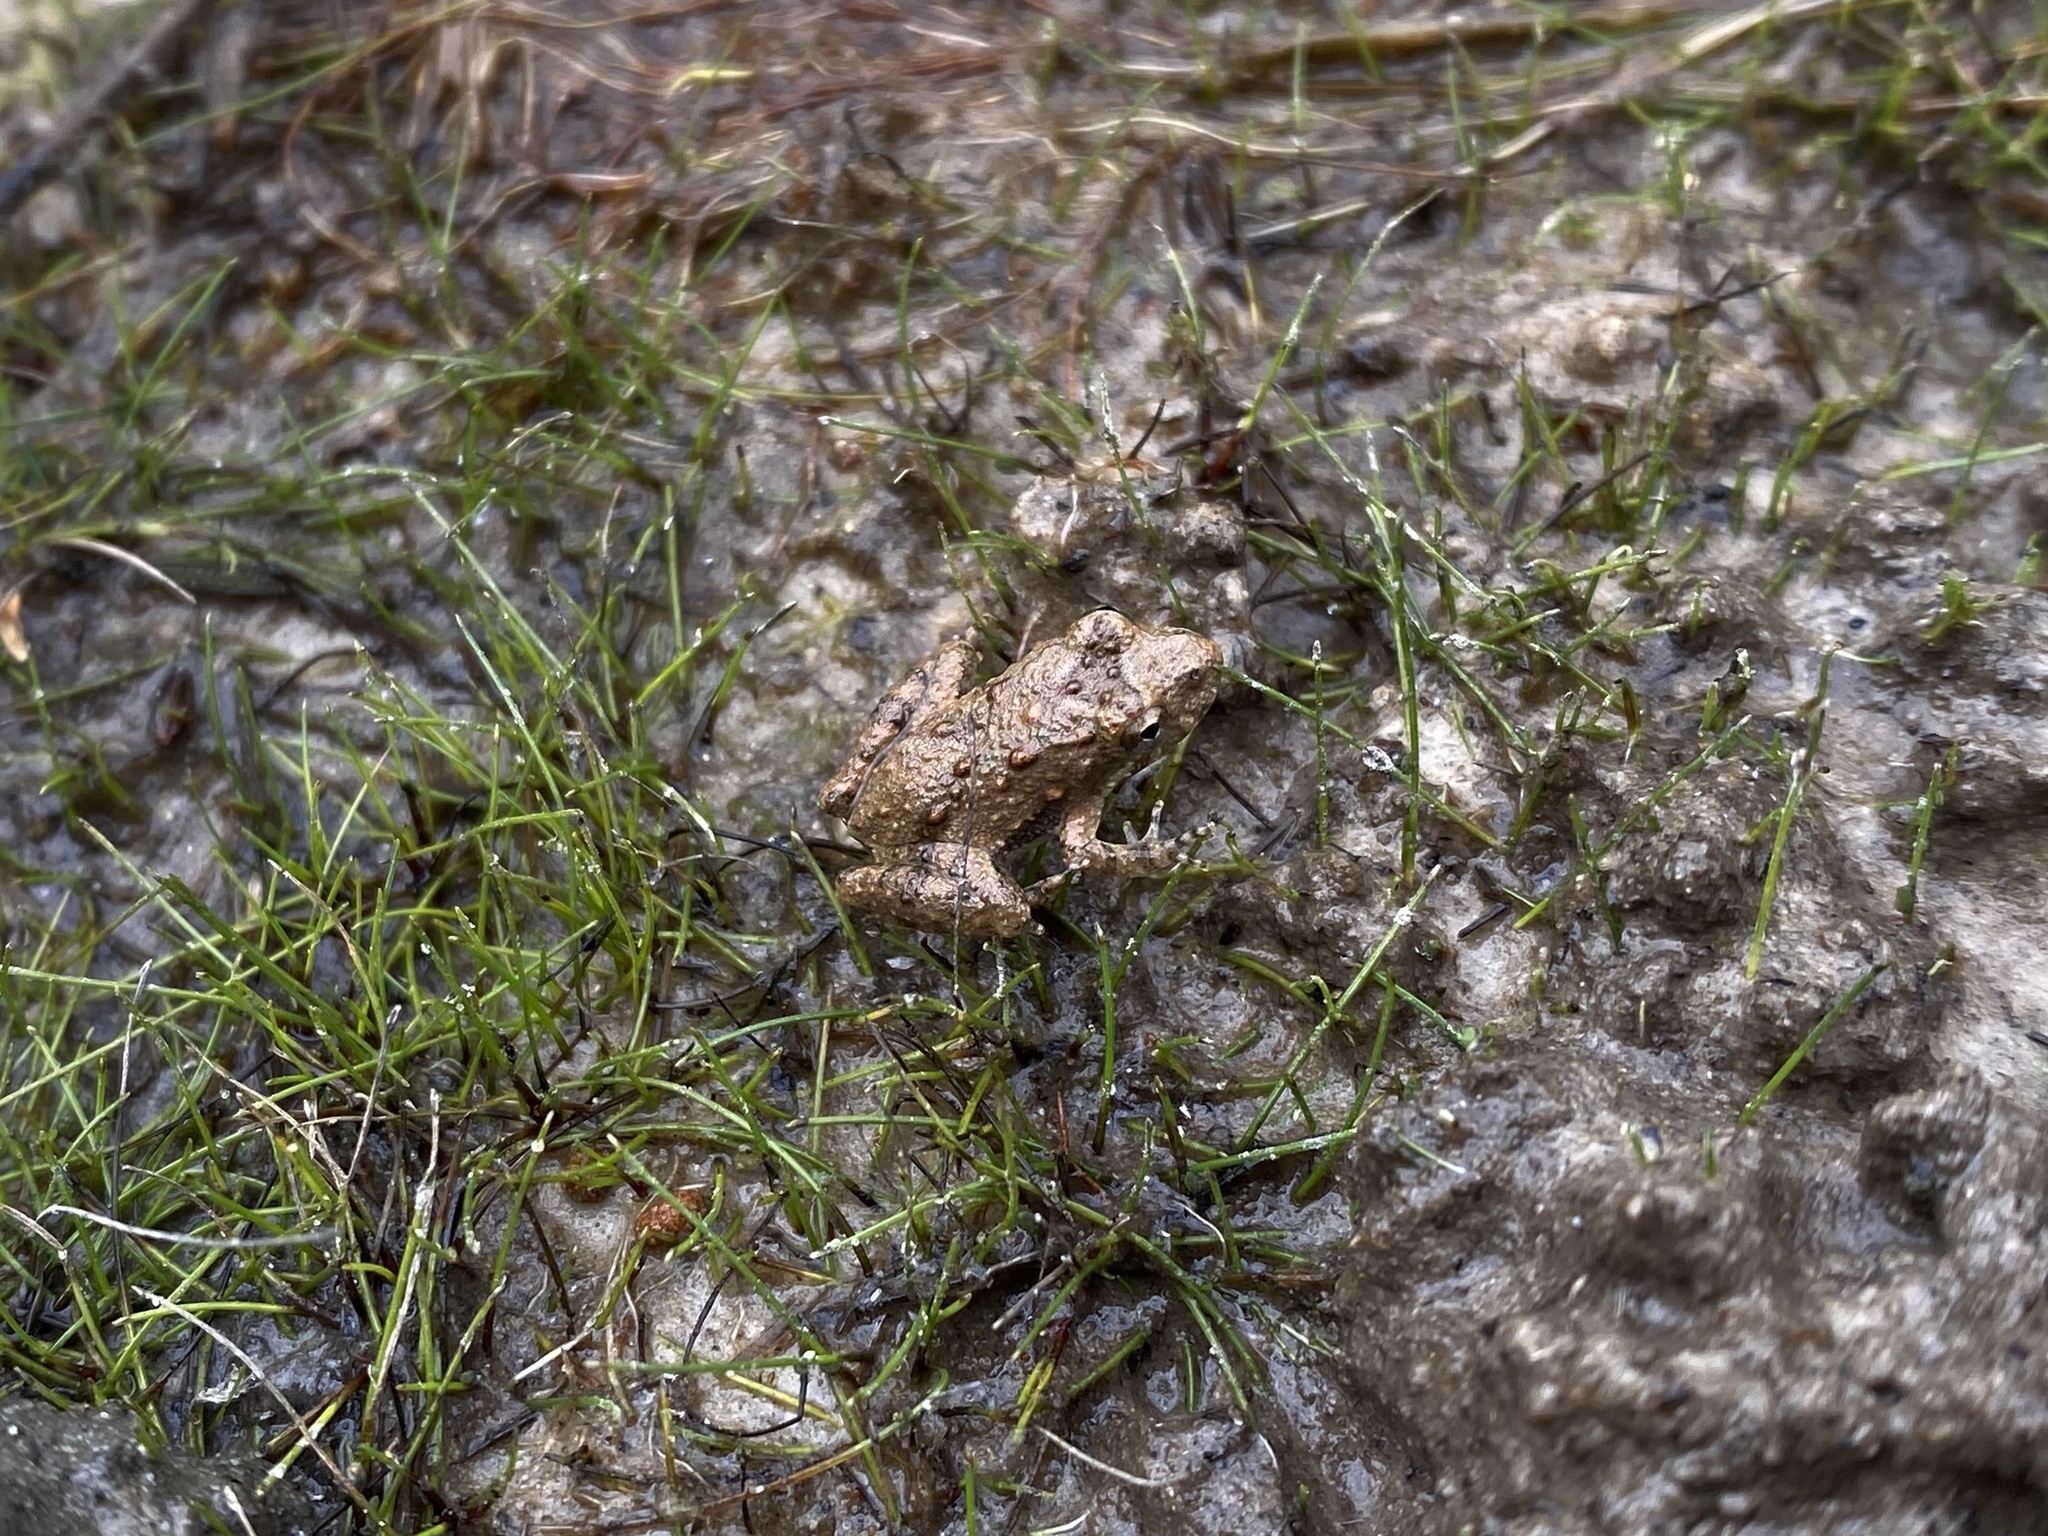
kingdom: Animalia
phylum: Chordata
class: Amphibia
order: Anura
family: Hylidae
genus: Acris
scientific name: Acris blanchardi
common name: Blanchard's cricket frog
